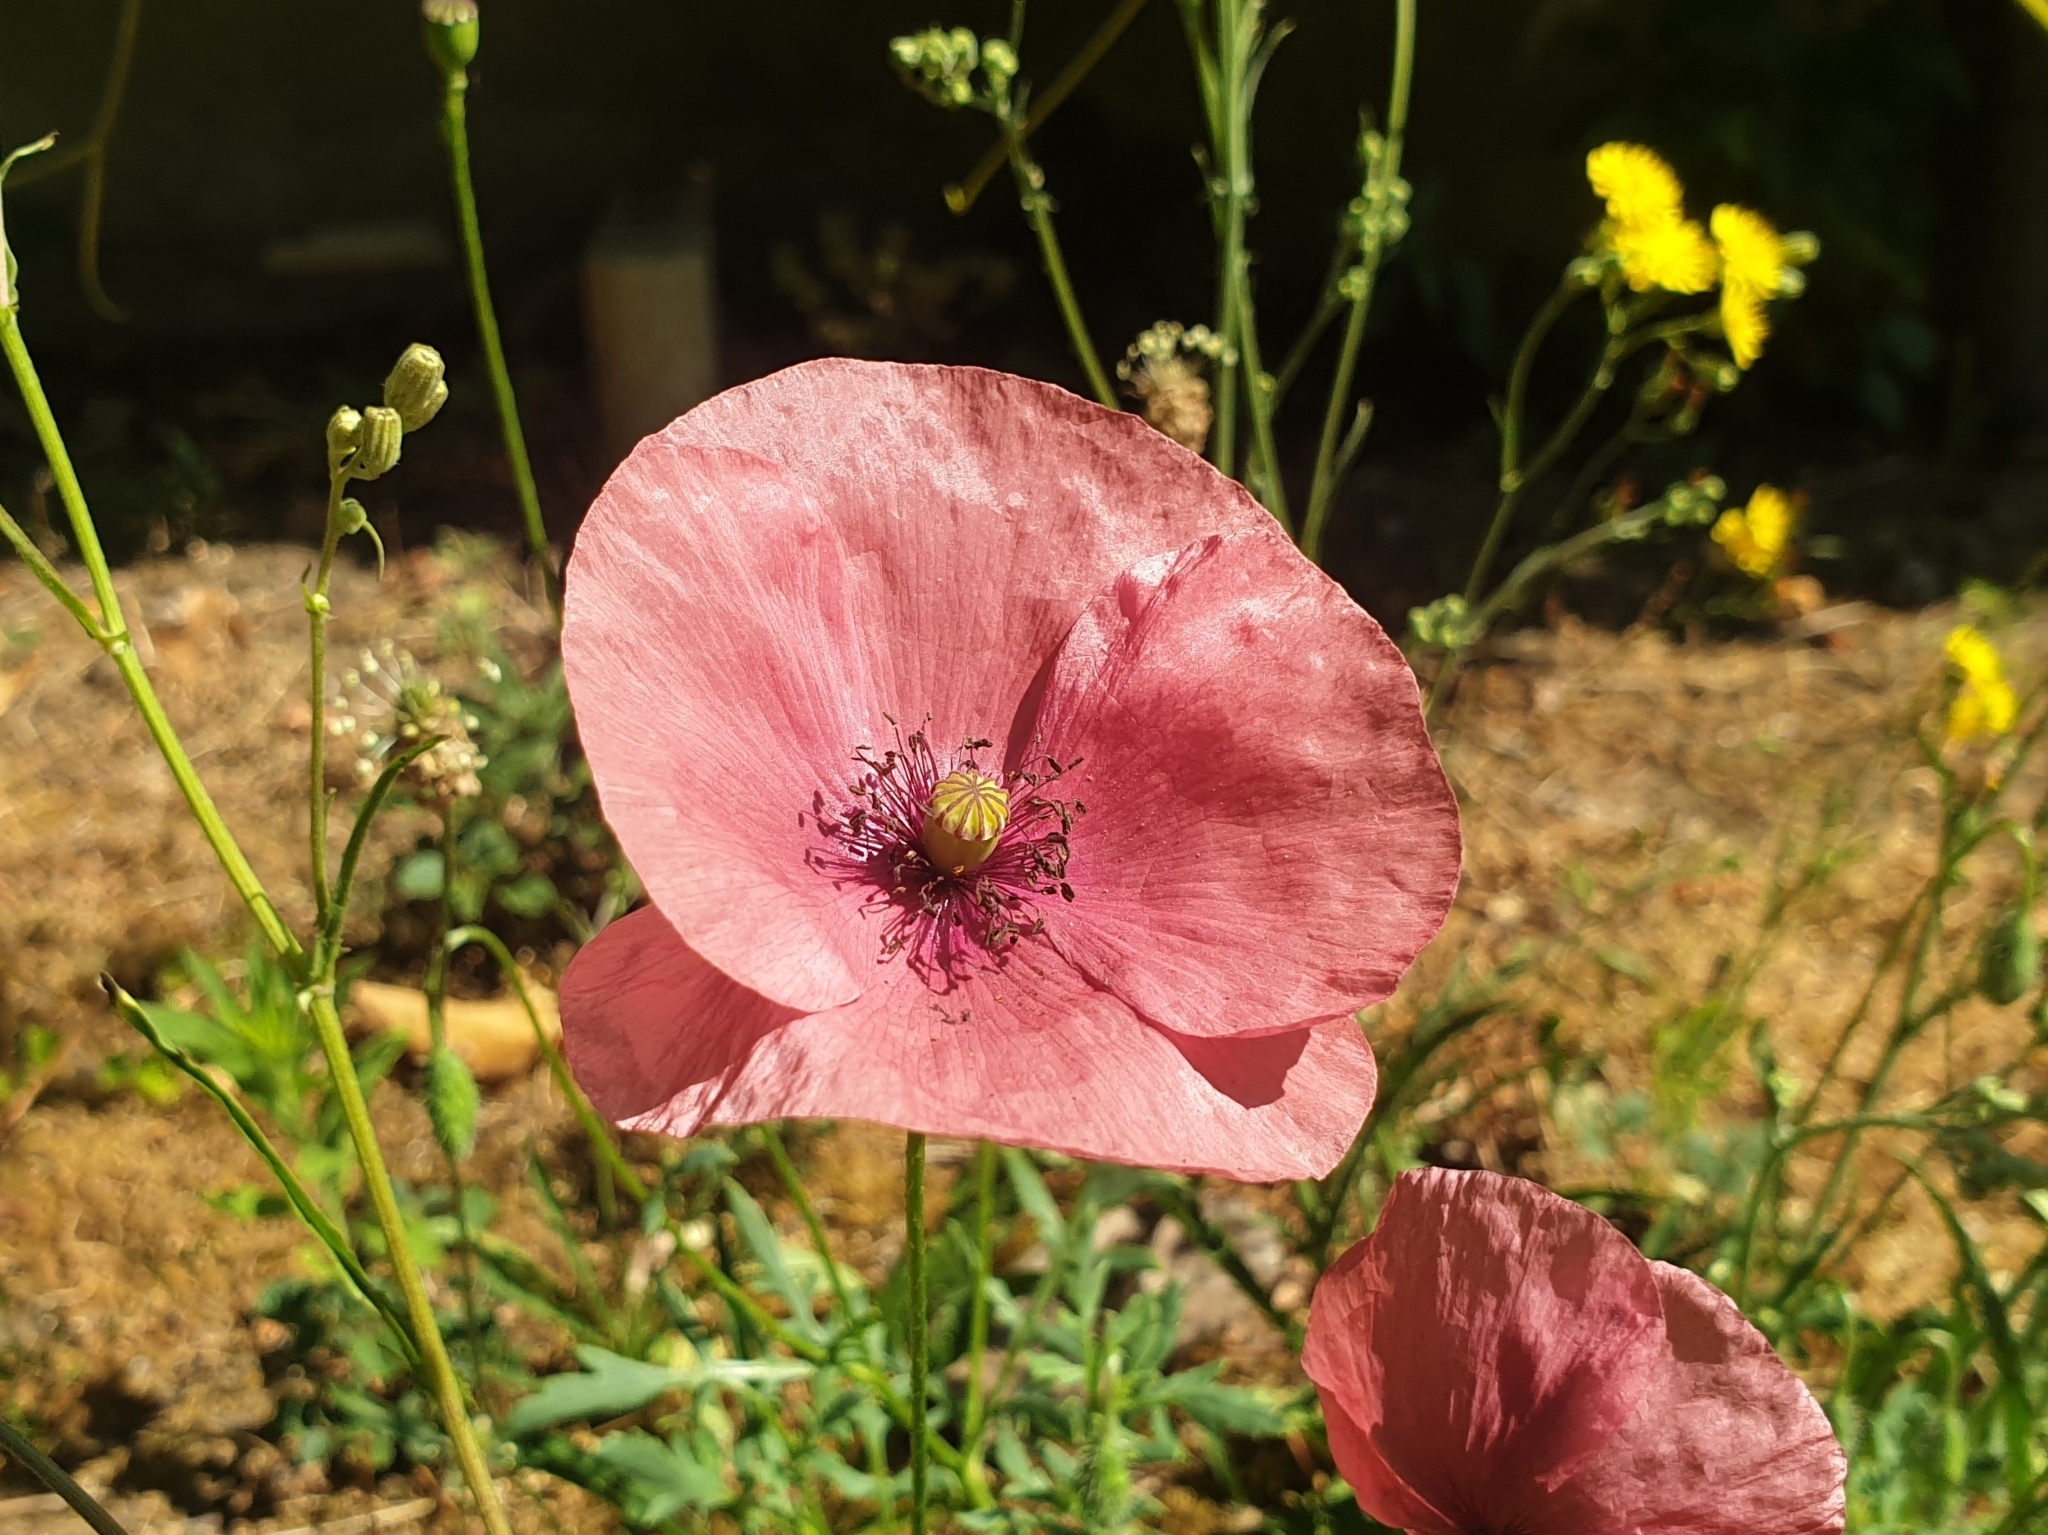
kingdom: Plantae
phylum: Tracheophyta
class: Magnoliopsida
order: Ranunculales
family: Papaveraceae
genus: Papaver
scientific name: Papaver rhoeas
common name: Corn poppy
